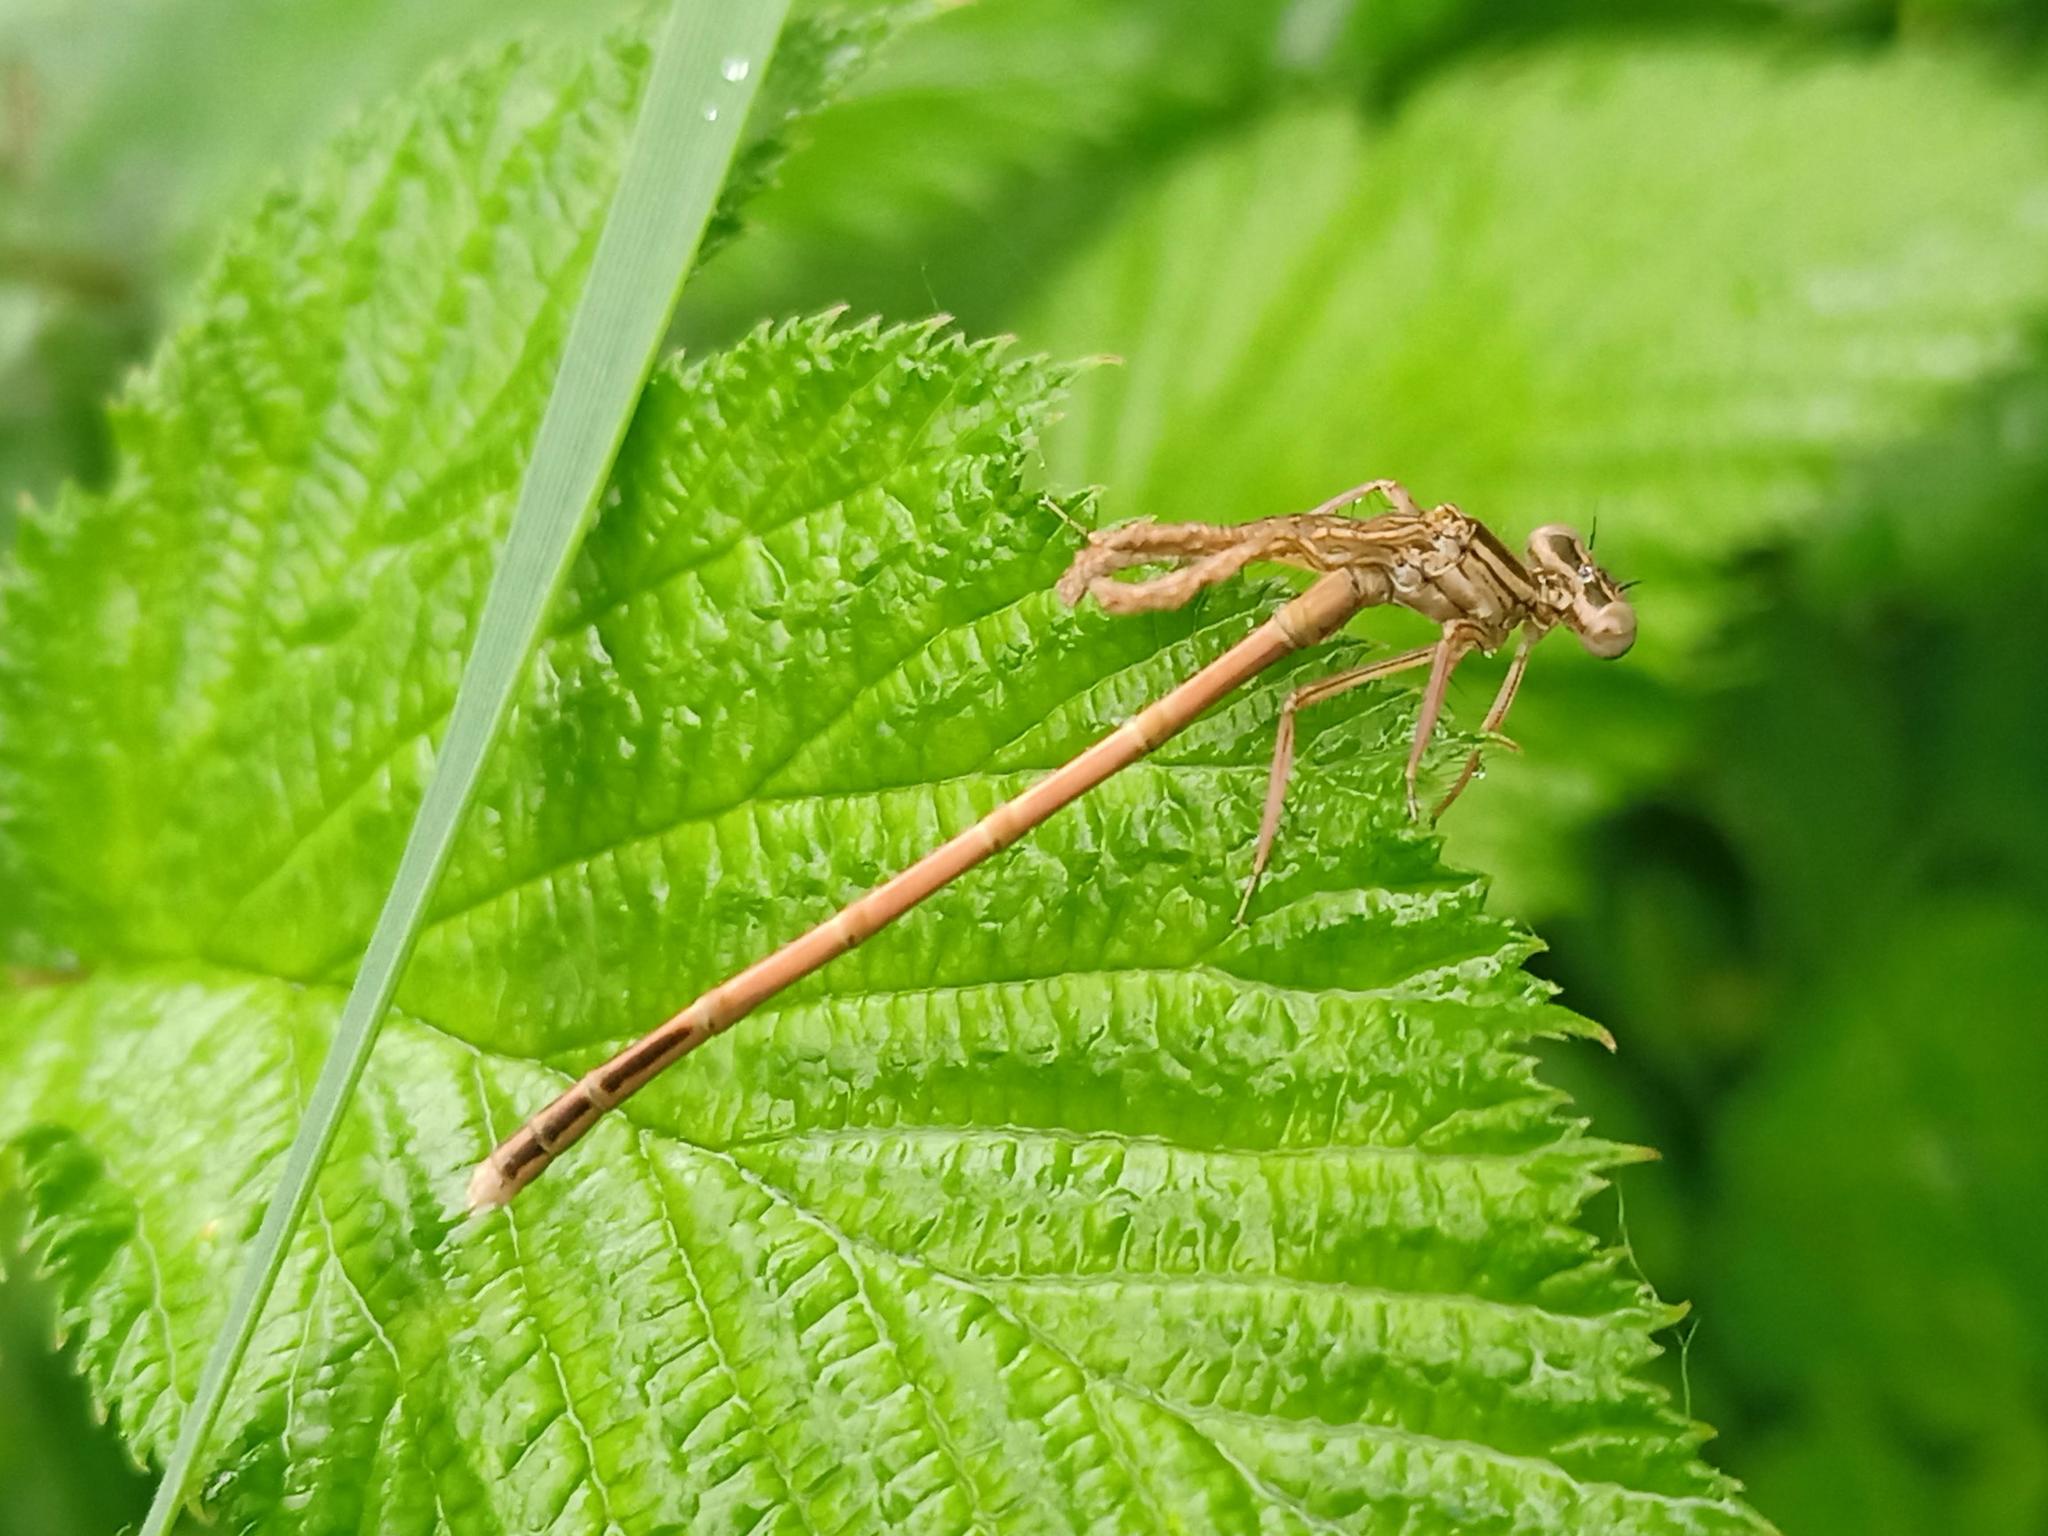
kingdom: Animalia
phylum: Arthropoda
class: Insecta
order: Odonata
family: Platycnemididae
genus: Platycnemis
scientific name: Platycnemis acutipennis
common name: Orange featherleg
